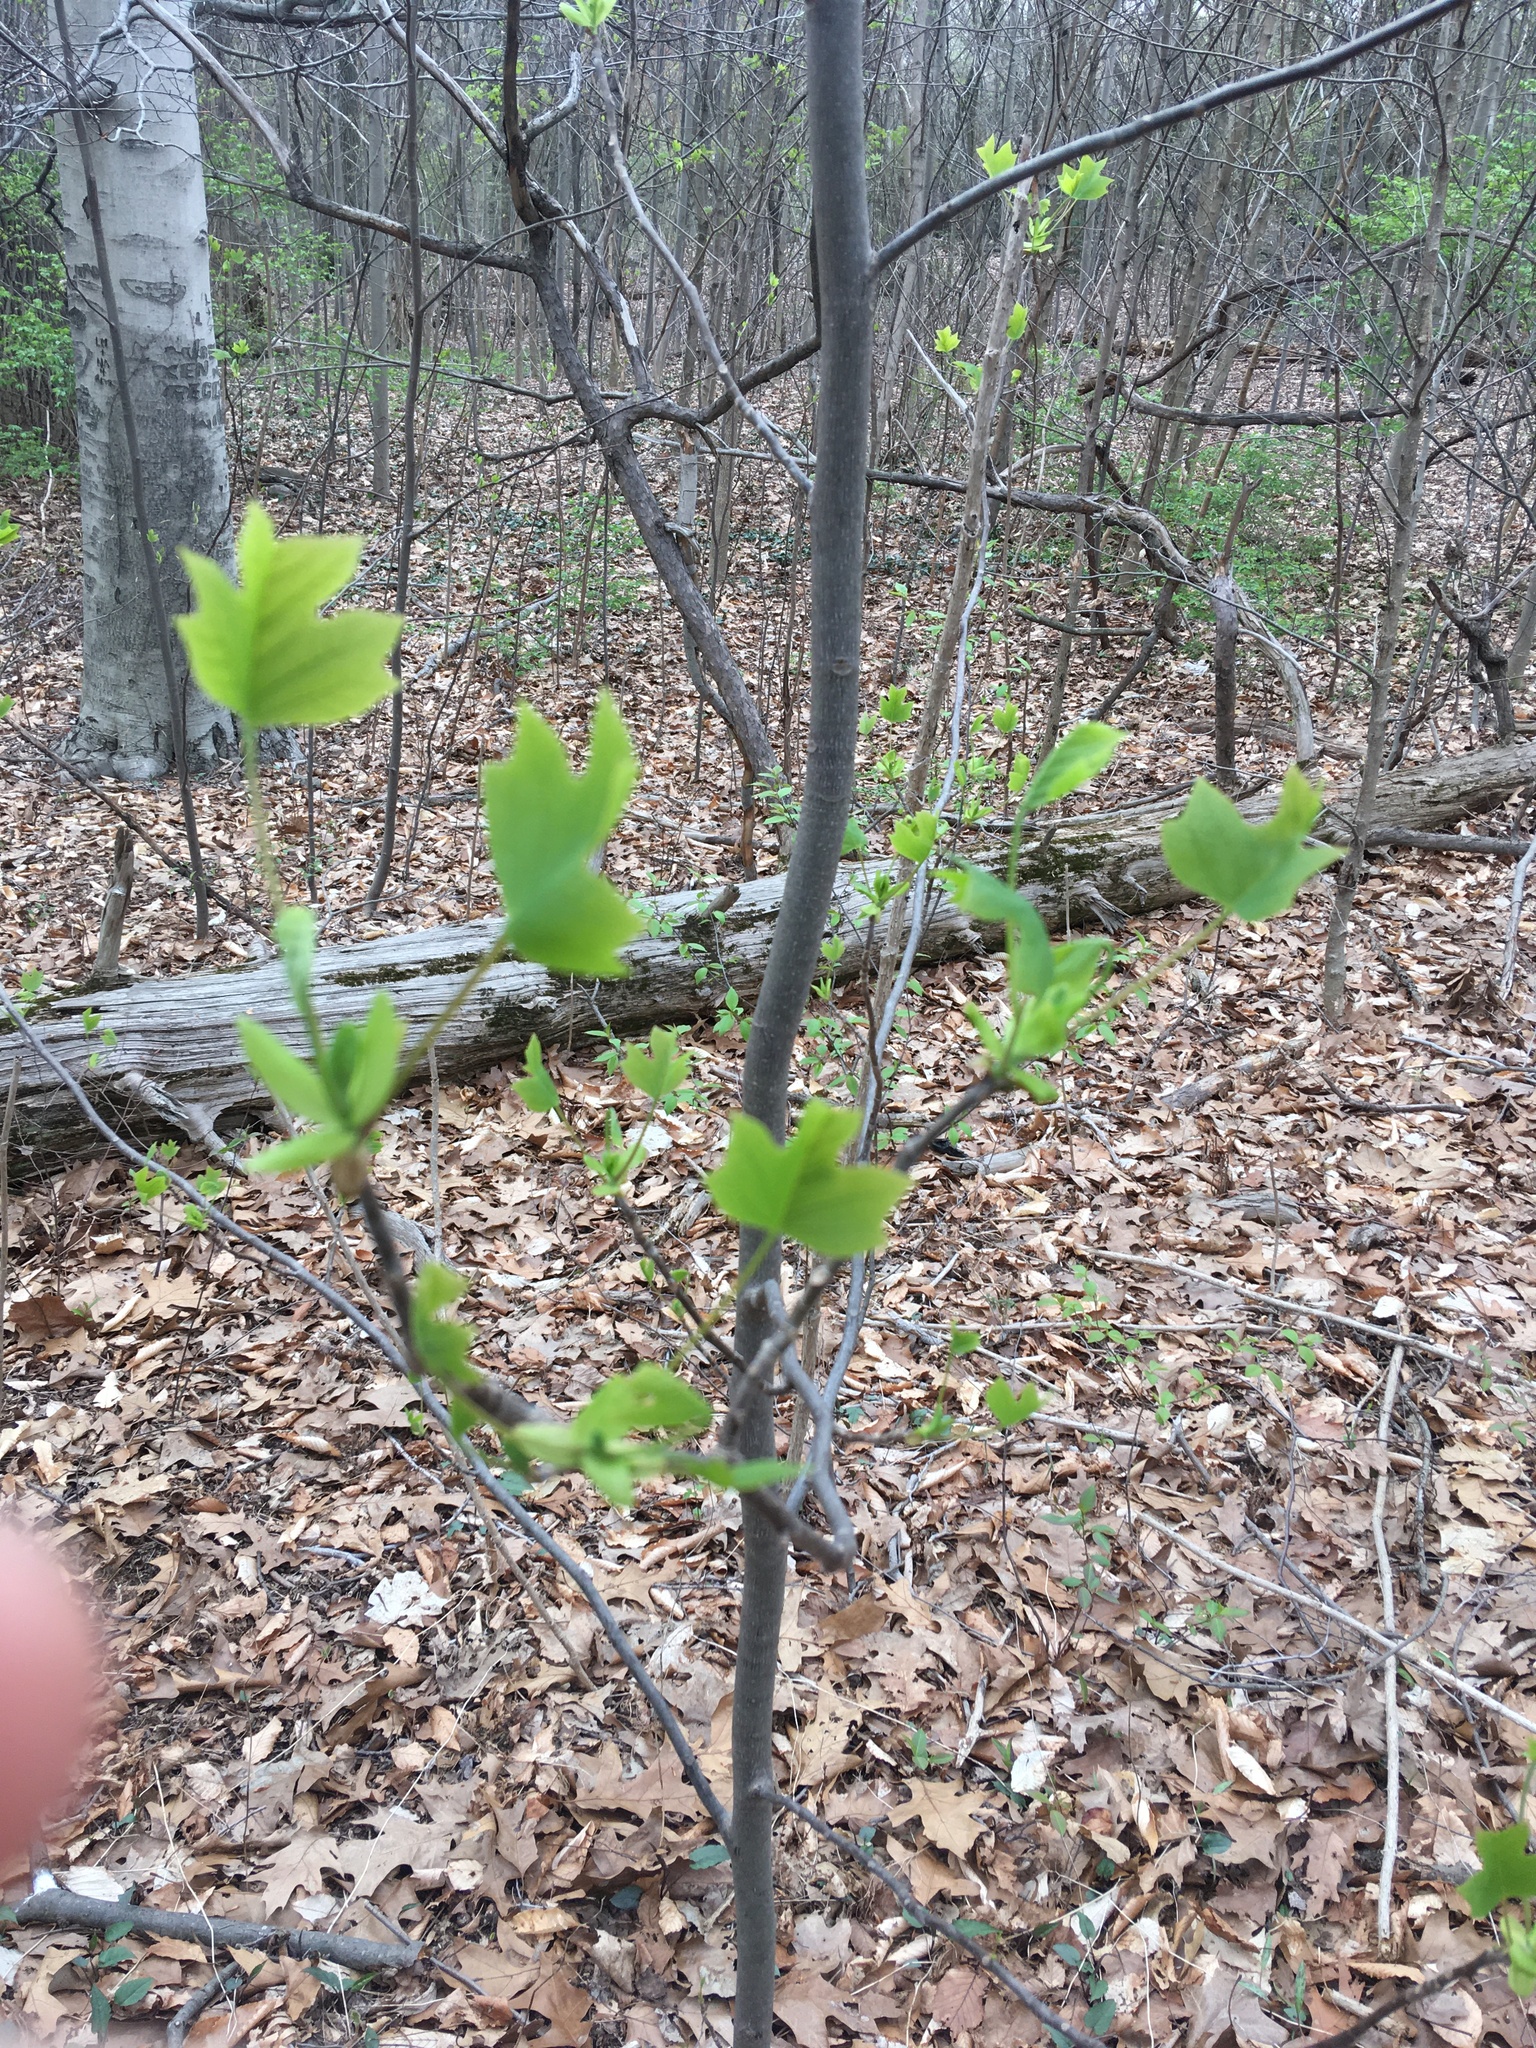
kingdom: Plantae
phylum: Tracheophyta
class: Magnoliopsida
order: Magnoliales
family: Magnoliaceae
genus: Liriodendron
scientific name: Liriodendron tulipifera
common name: Tulip tree
